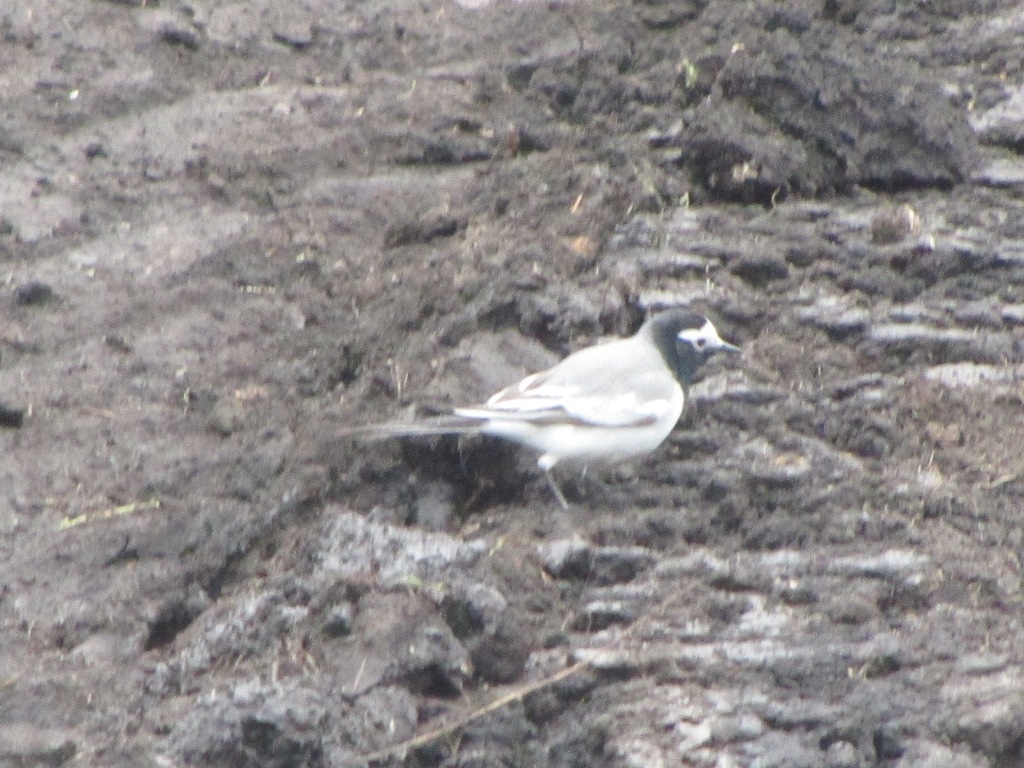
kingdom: Animalia
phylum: Chordata
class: Aves
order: Passeriformes
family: Motacillidae
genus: Motacilla
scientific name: Motacilla alba
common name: White wagtail
